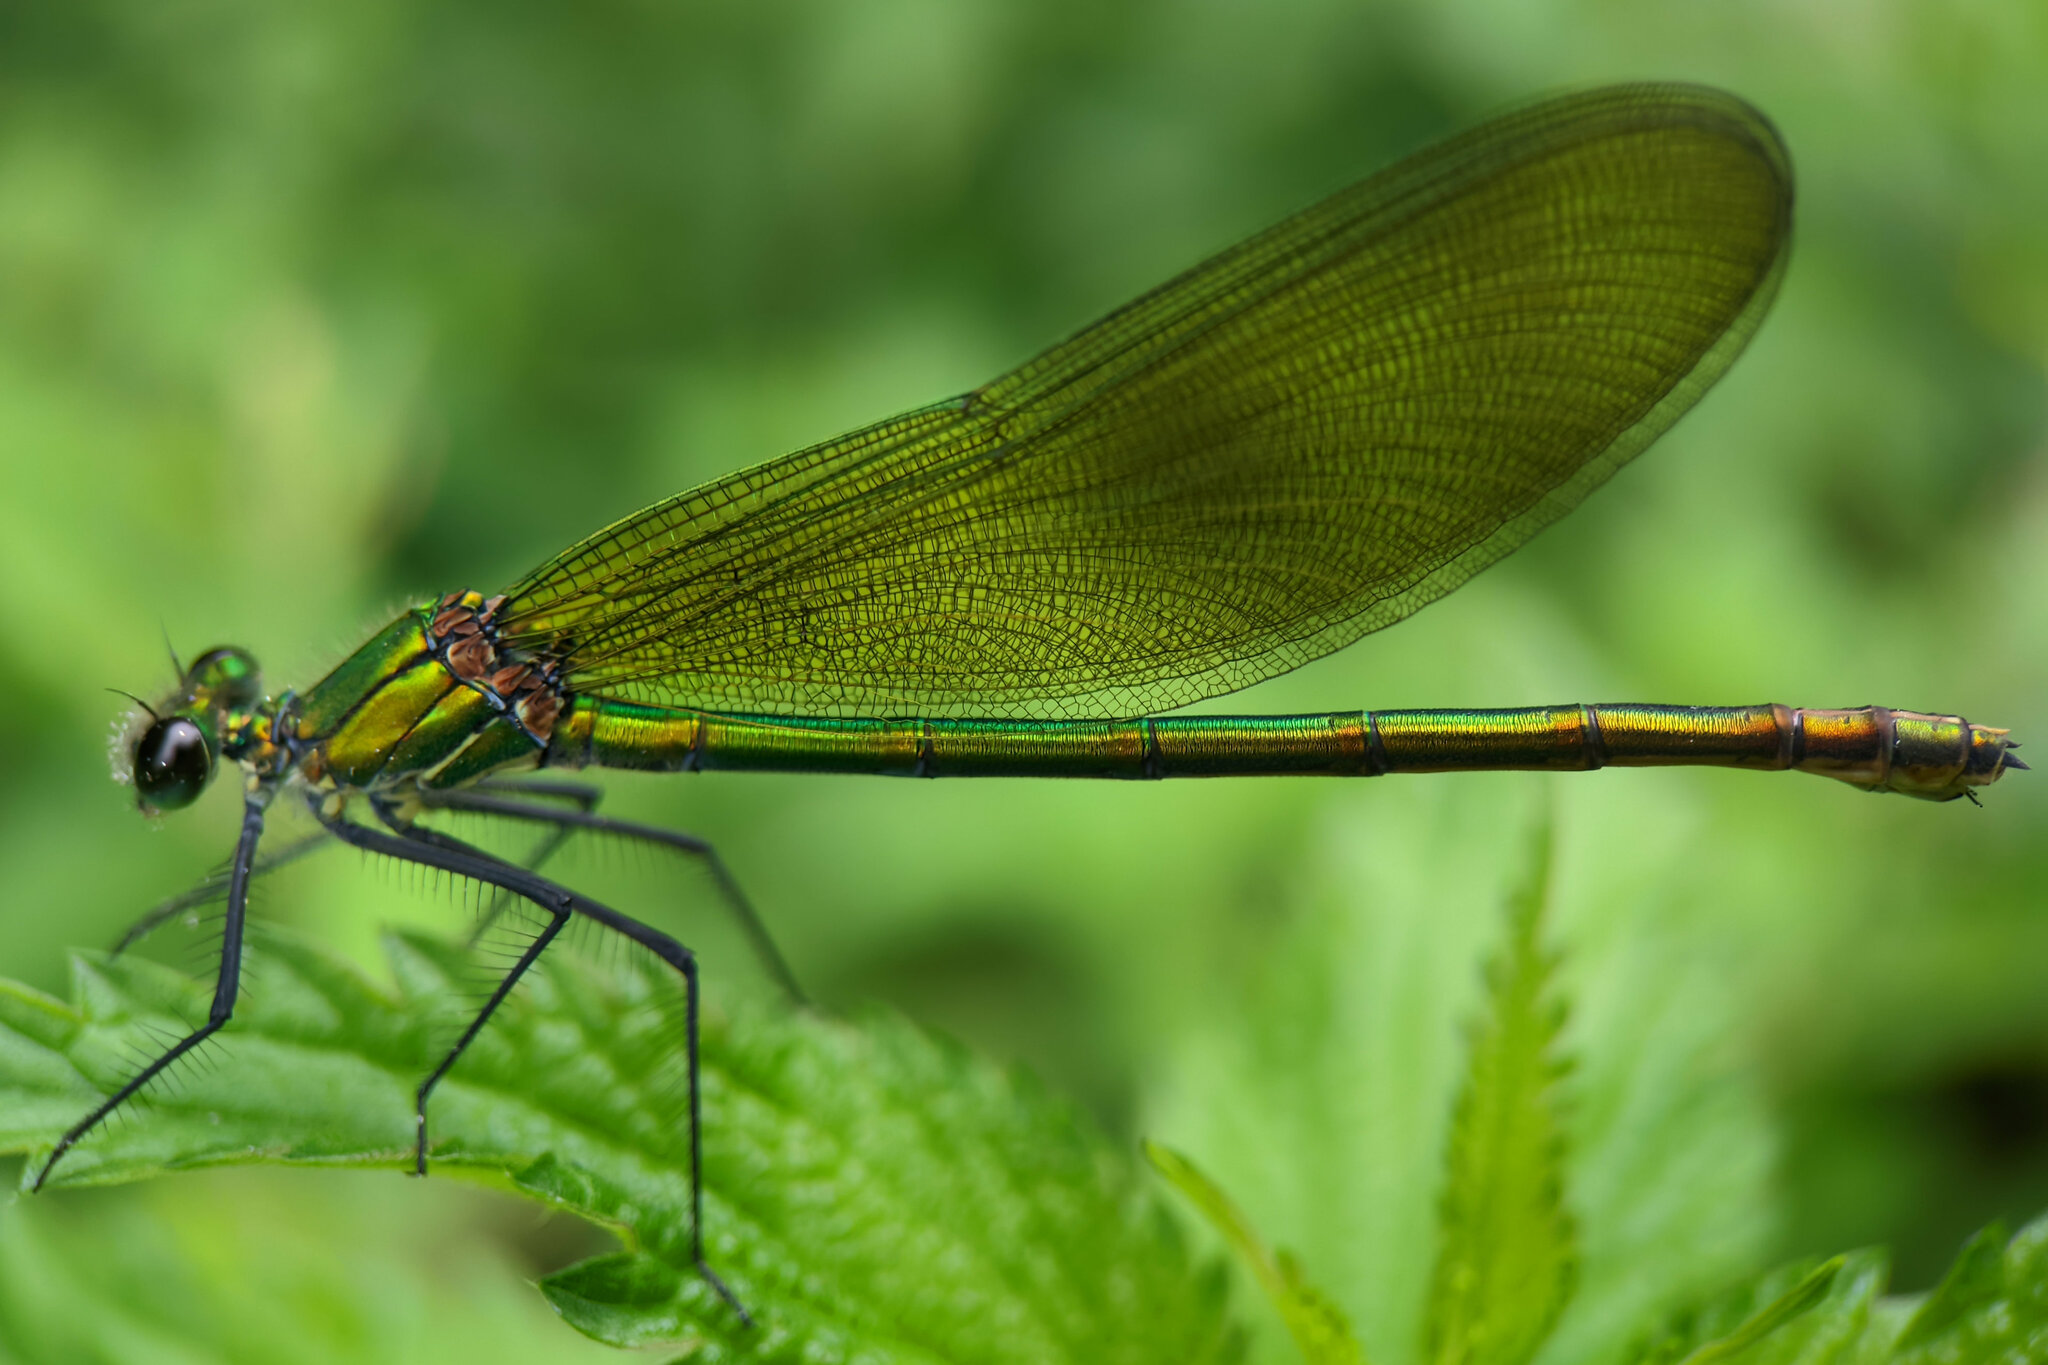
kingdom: Animalia
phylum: Arthropoda
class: Insecta
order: Odonata
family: Calopterygidae
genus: Calopteryx
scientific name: Calopteryx splendens
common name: Banded demoiselle
